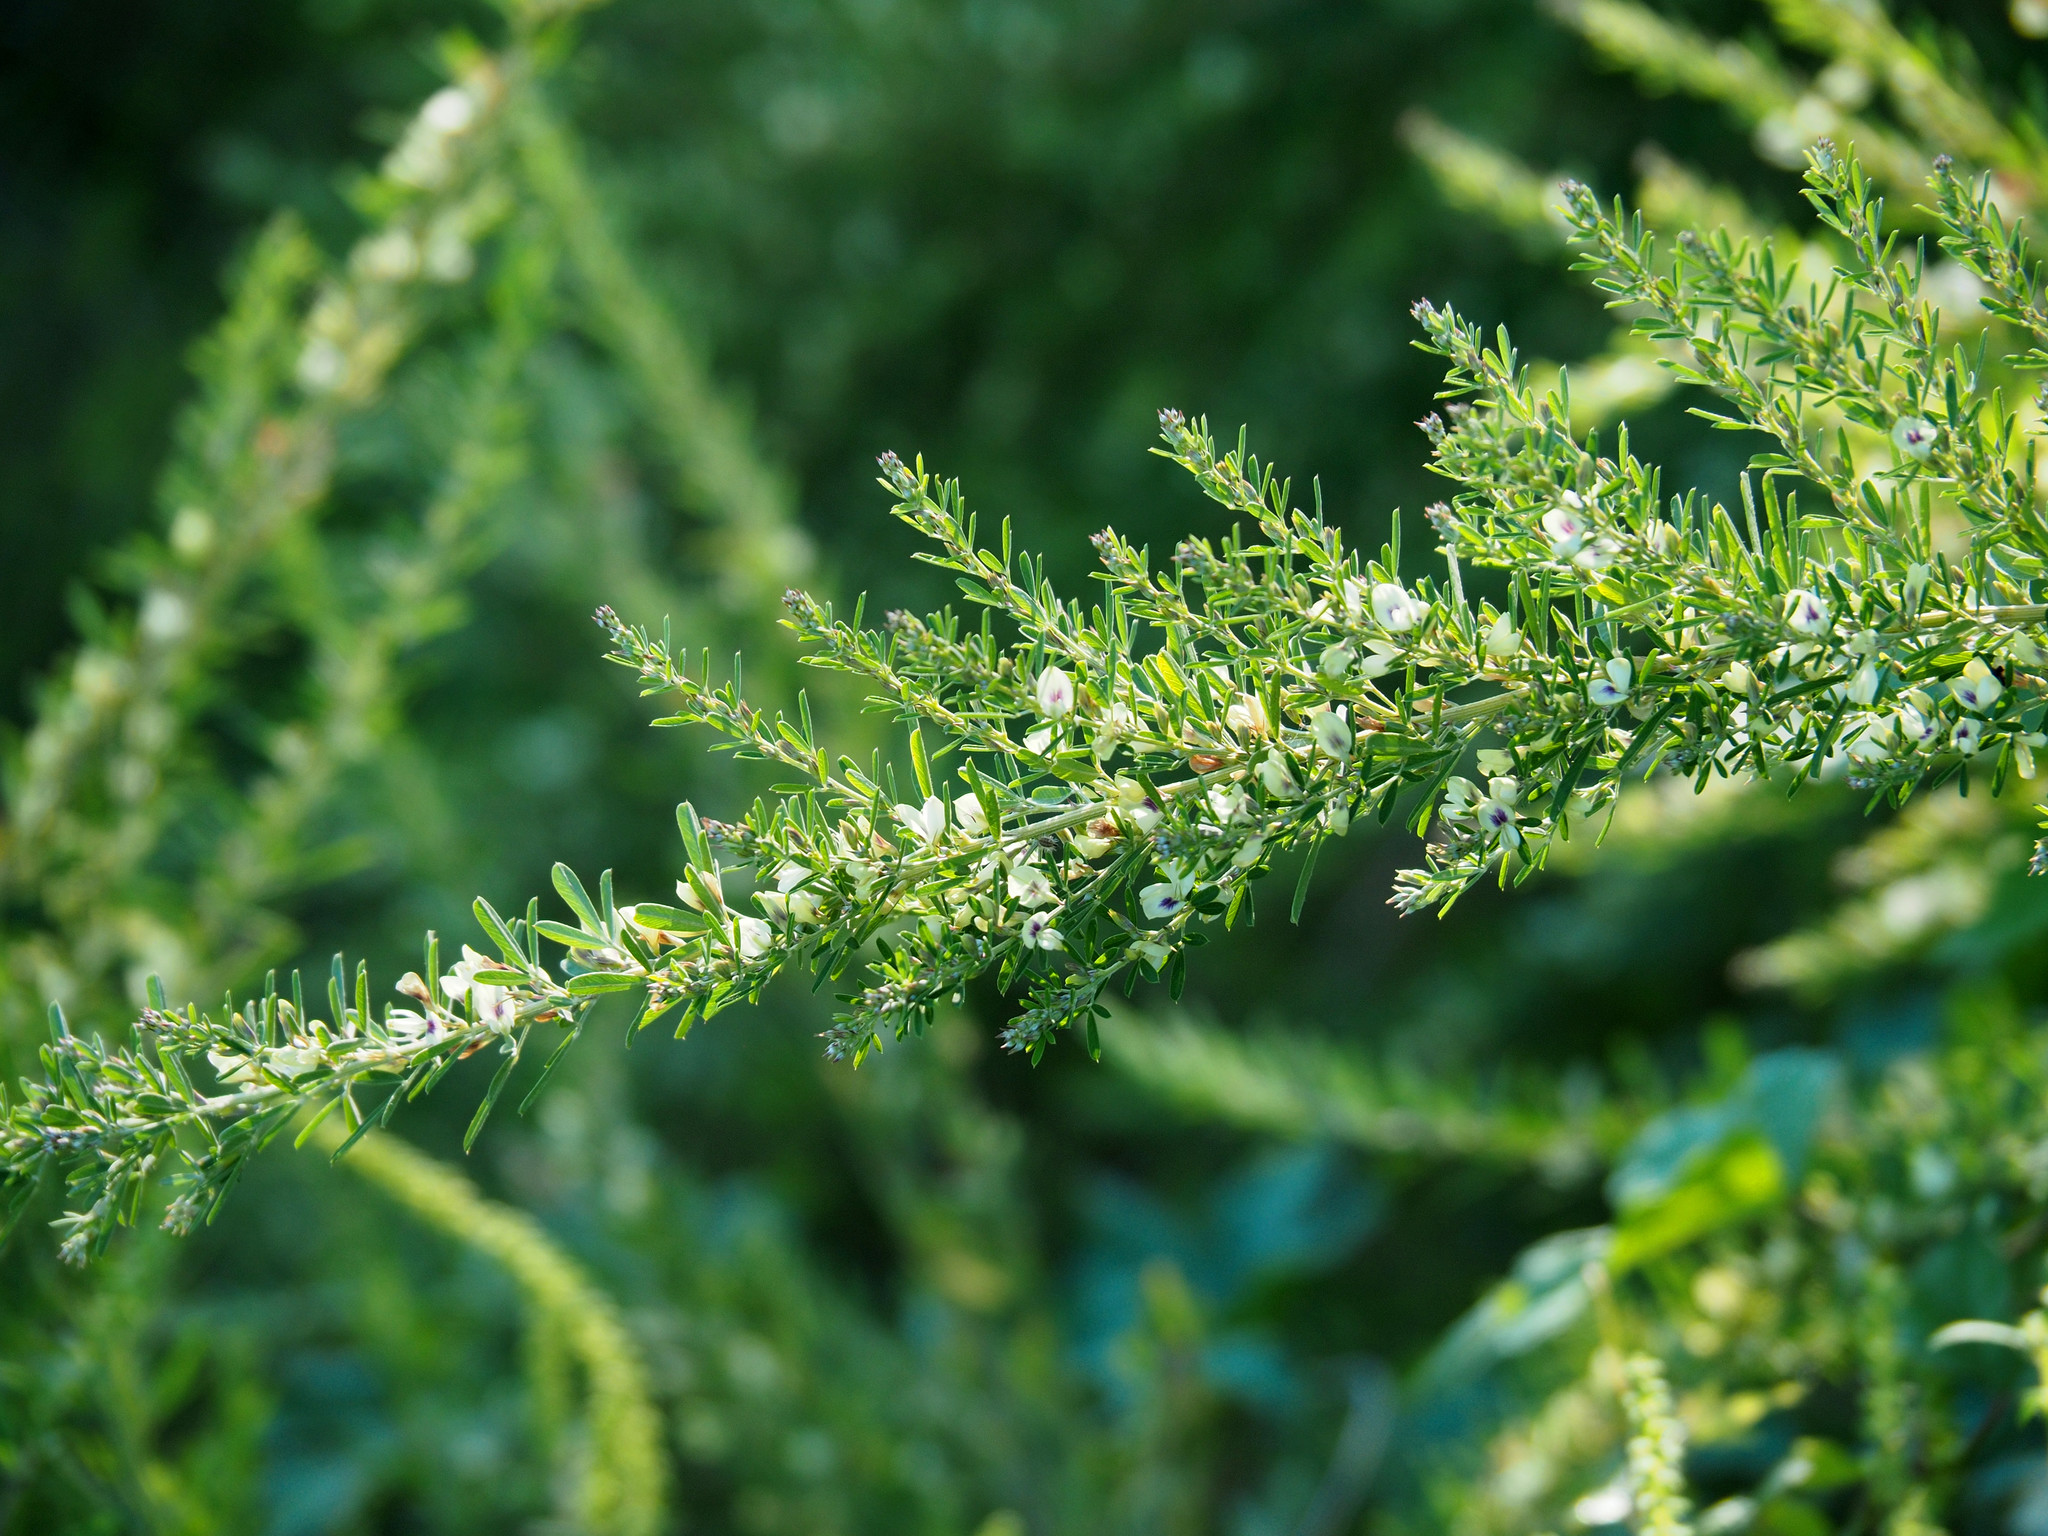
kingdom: Plantae
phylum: Tracheophyta
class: Magnoliopsida
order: Fabales
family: Fabaceae
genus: Lespedeza
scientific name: Lespedeza cuneata
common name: Chinese bush-clover
